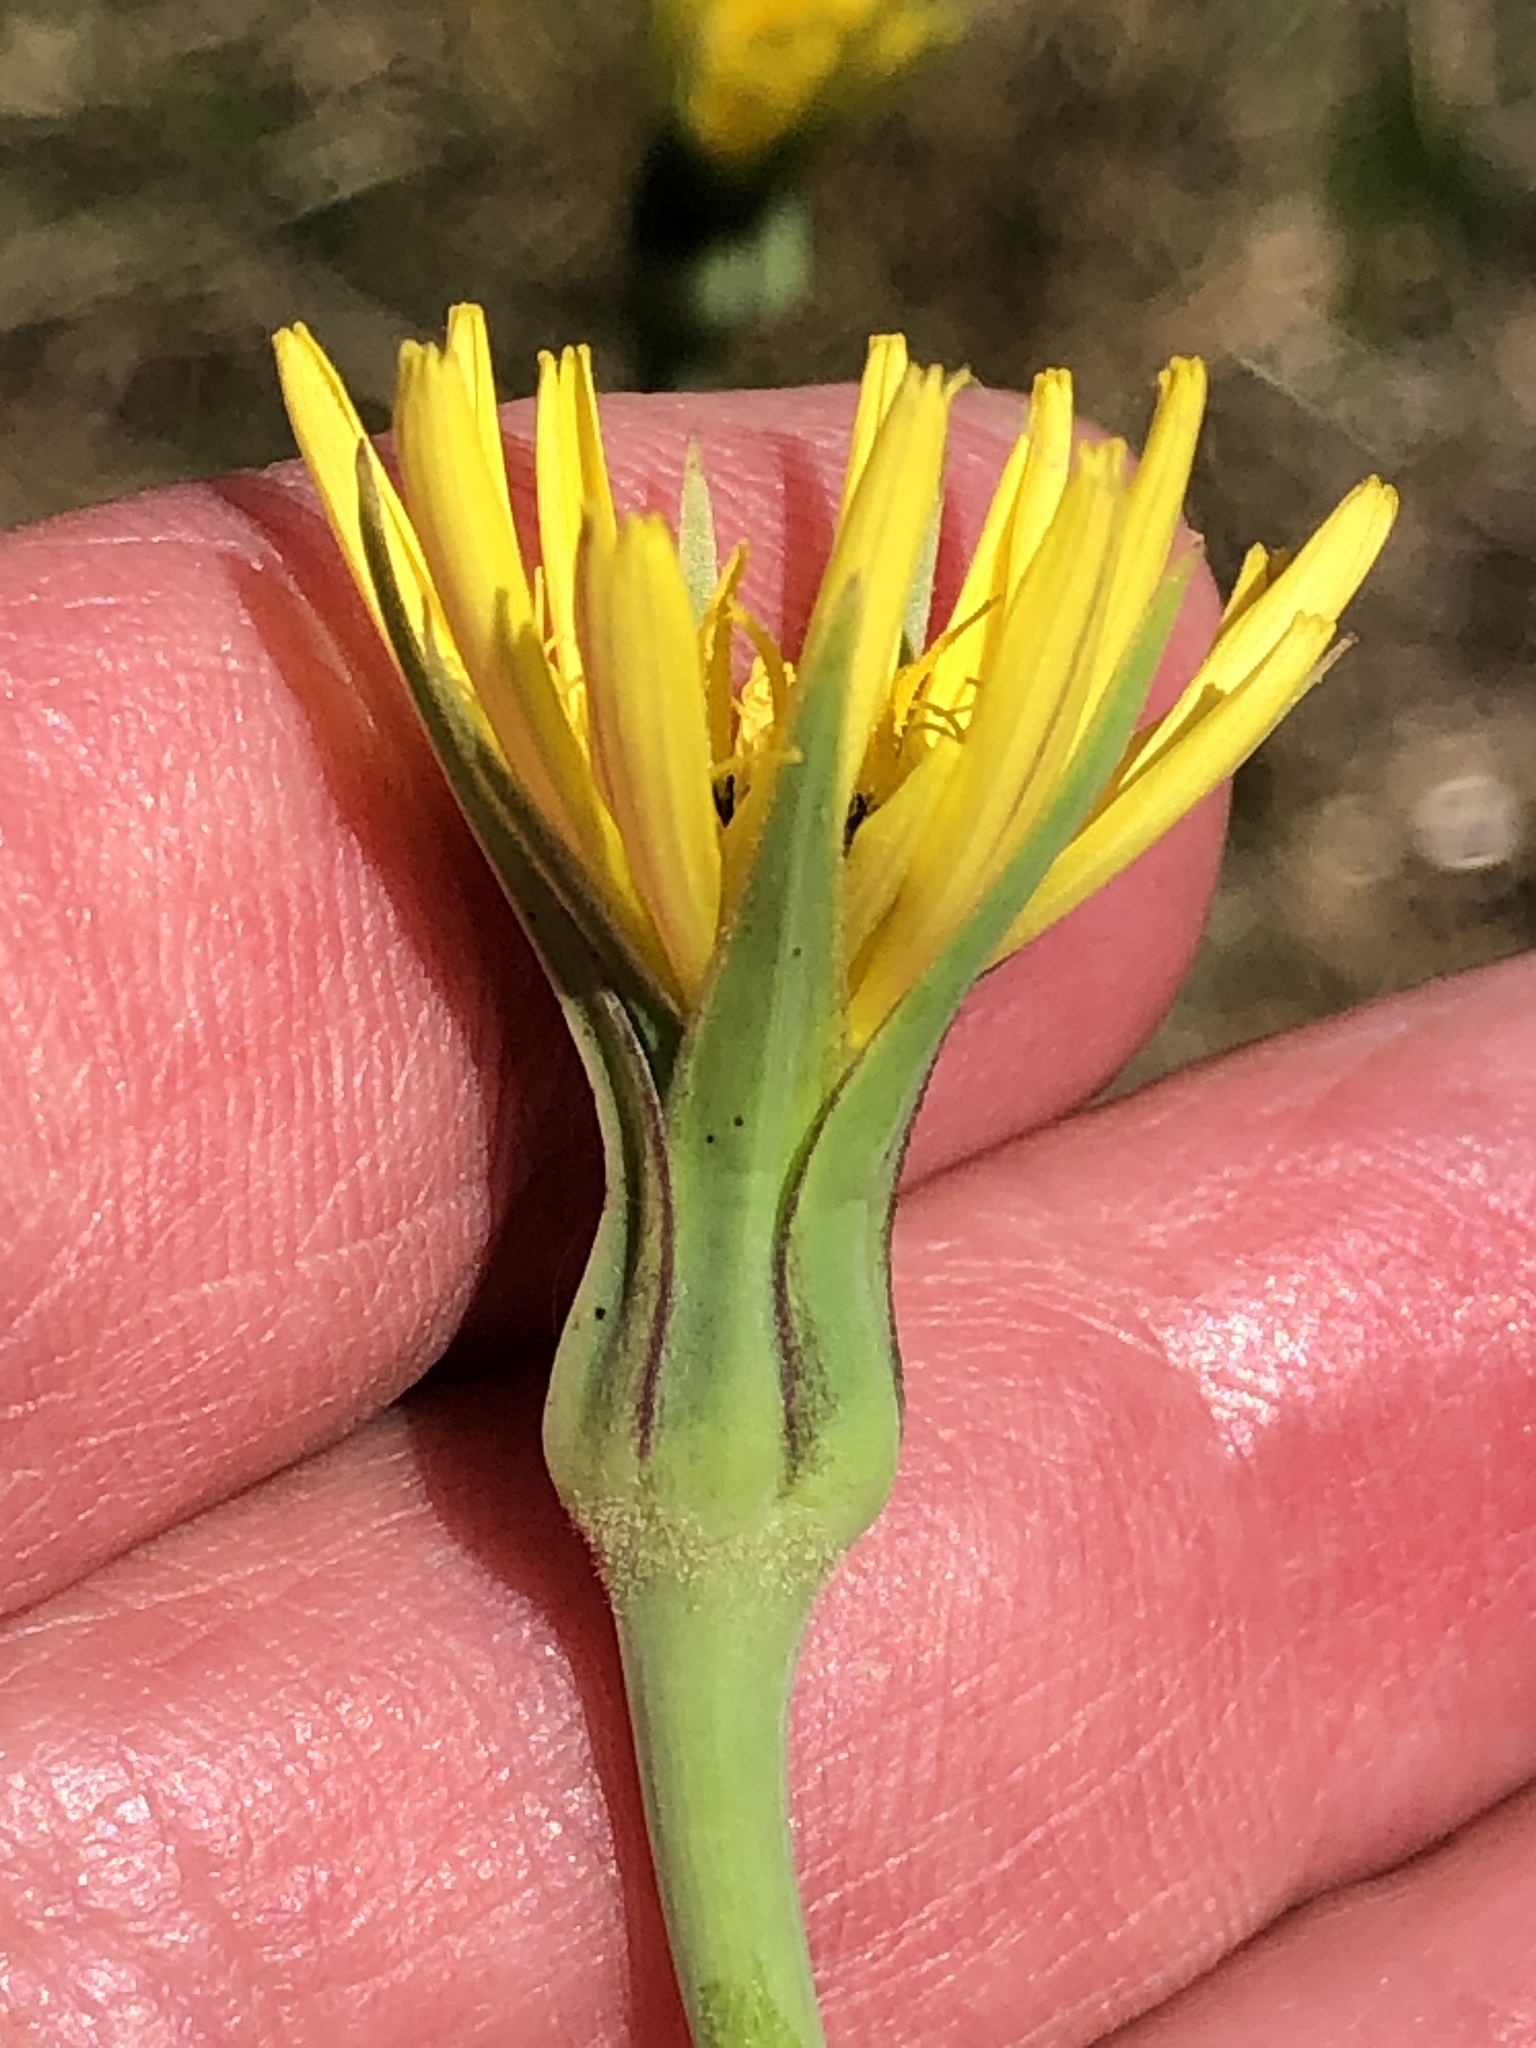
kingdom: Plantae
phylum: Tracheophyta
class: Magnoliopsida
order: Asterales
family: Asteraceae
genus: Tragopogon
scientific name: Tragopogon pratensis
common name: Goat's-beard
